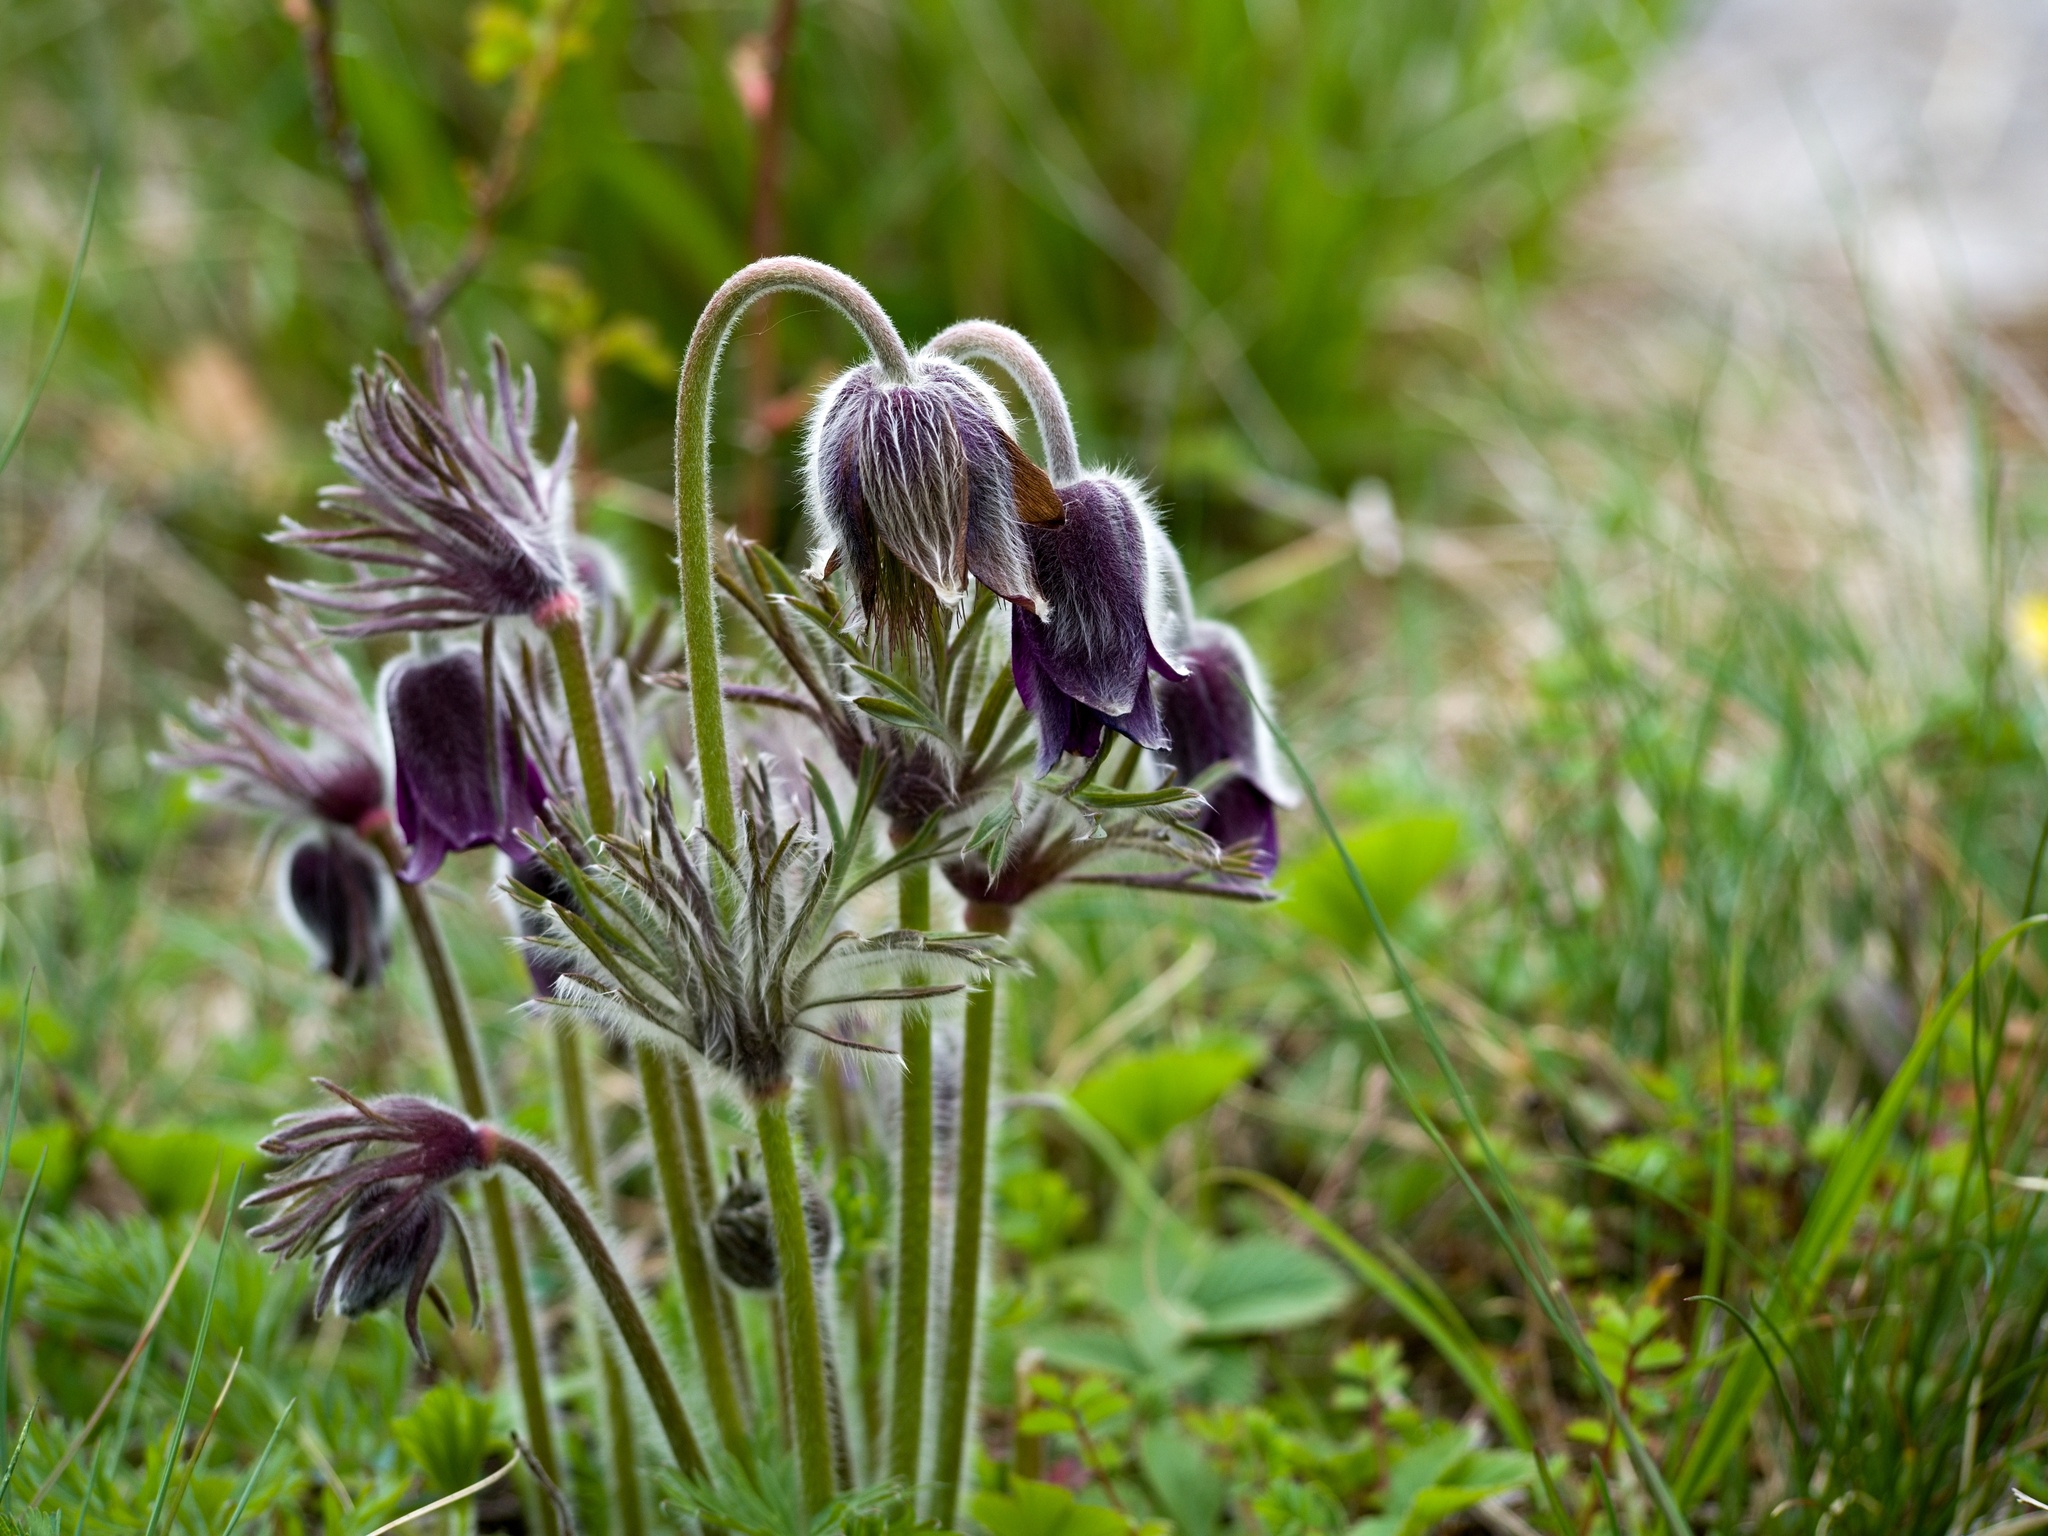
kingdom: Plantae
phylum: Tracheophyta
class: Magnoliopsida
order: Ranunculales
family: Ranunculaceae
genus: Pulsatilla
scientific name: Pulsatilla pratensis
